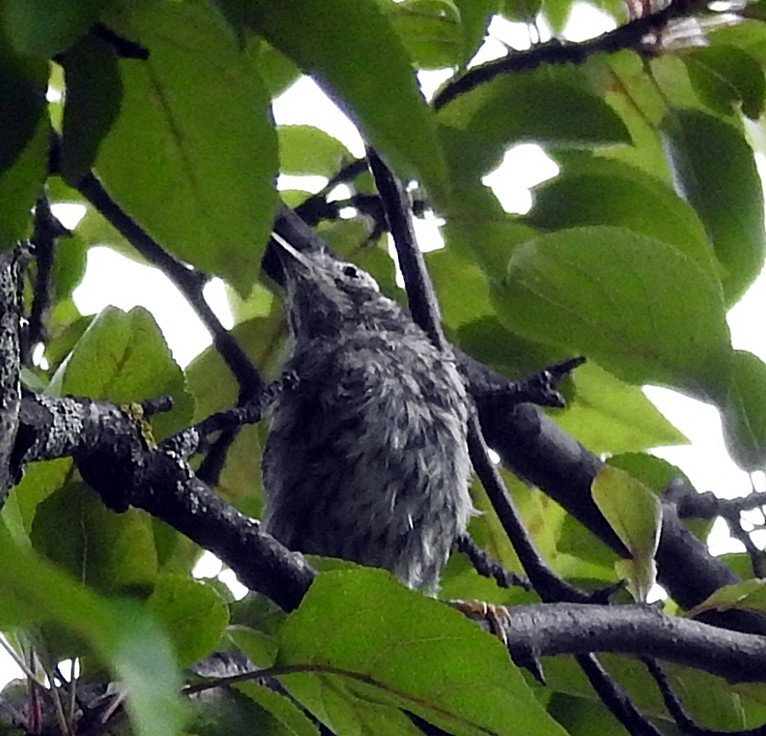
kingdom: Animalia
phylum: Chordata
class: Aves
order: Passeriformes
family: Parulidae
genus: Mniotilta
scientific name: Mniotilta varia
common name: Black-and-white warbler
